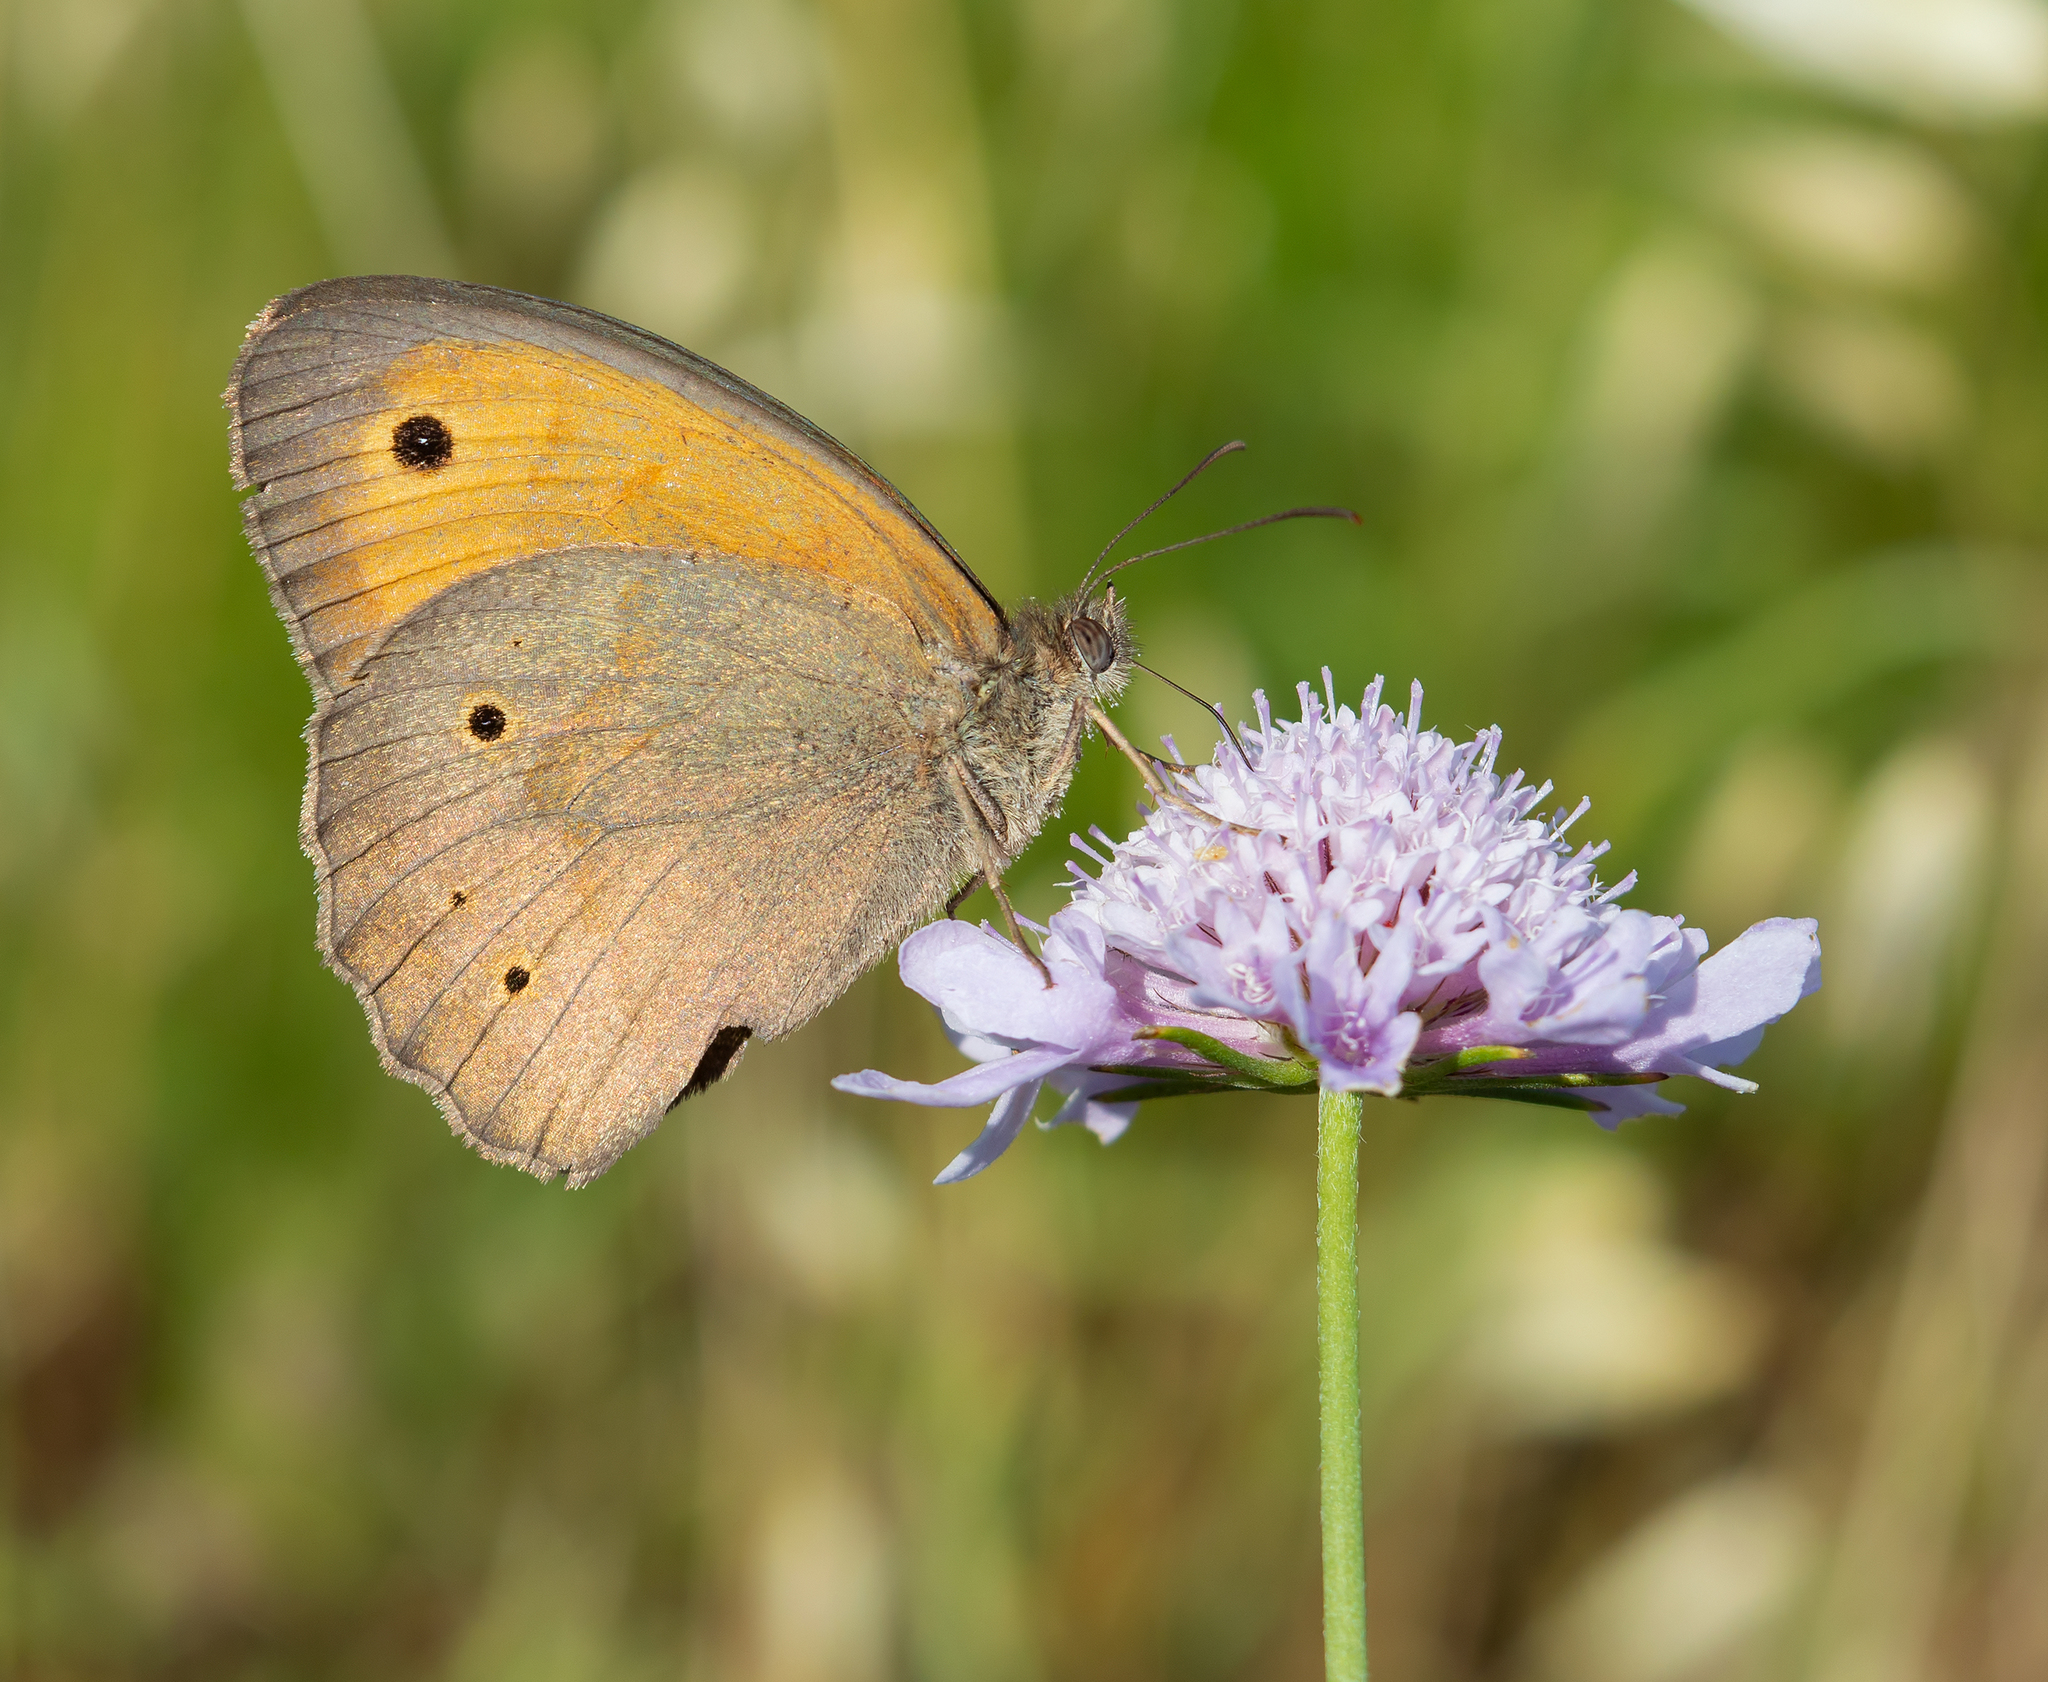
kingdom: Animalia
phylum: Arthropoda
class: Insecta
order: Lepidoptera
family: Nymphalidae
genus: Maniola
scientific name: Maniola jurtina
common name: Meadow brown
